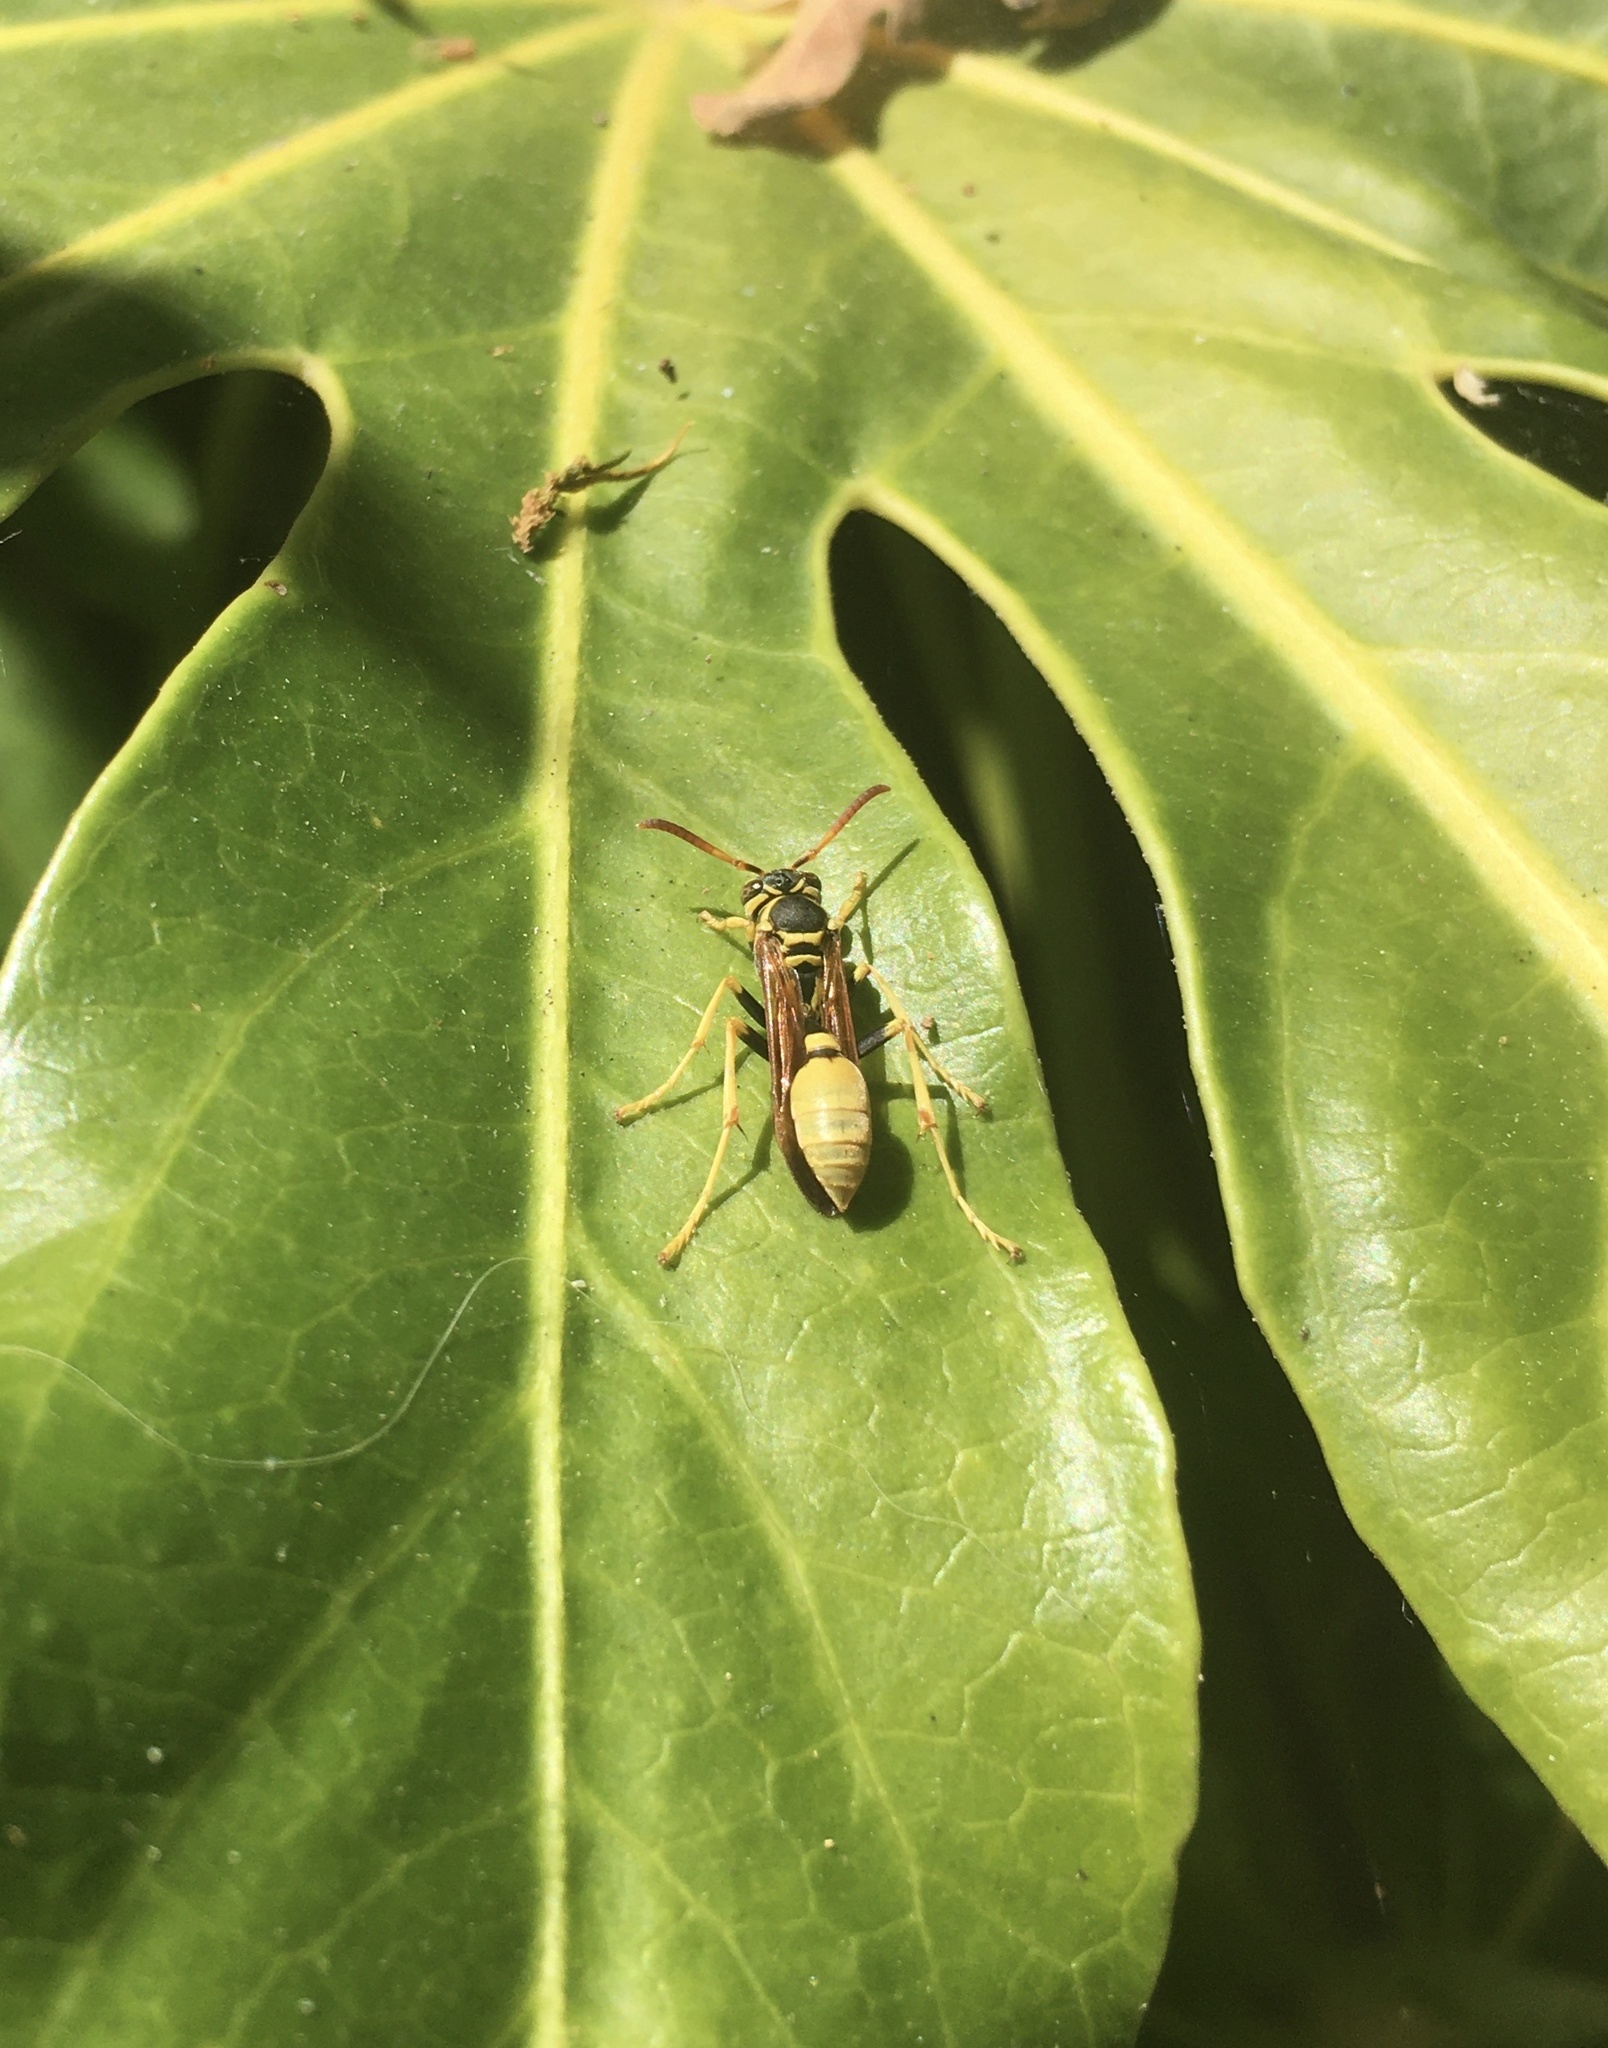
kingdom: Animalia
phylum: Arthropoda
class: Insecta
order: Hymenoptera
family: Vespidae
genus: Mischocyttarus
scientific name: Mischocyttarus flavitarsis
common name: Wasp
